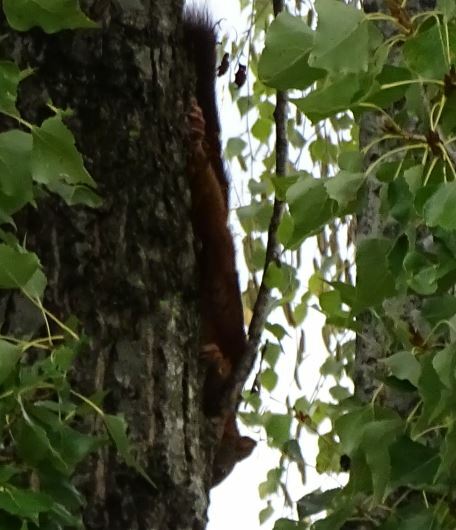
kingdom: Animalia
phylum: Chordata
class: Mammalia
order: Rodentia
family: Sciuridae
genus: Sciurus
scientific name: Sciurus vulgaris
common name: Eurasian red squirrel
